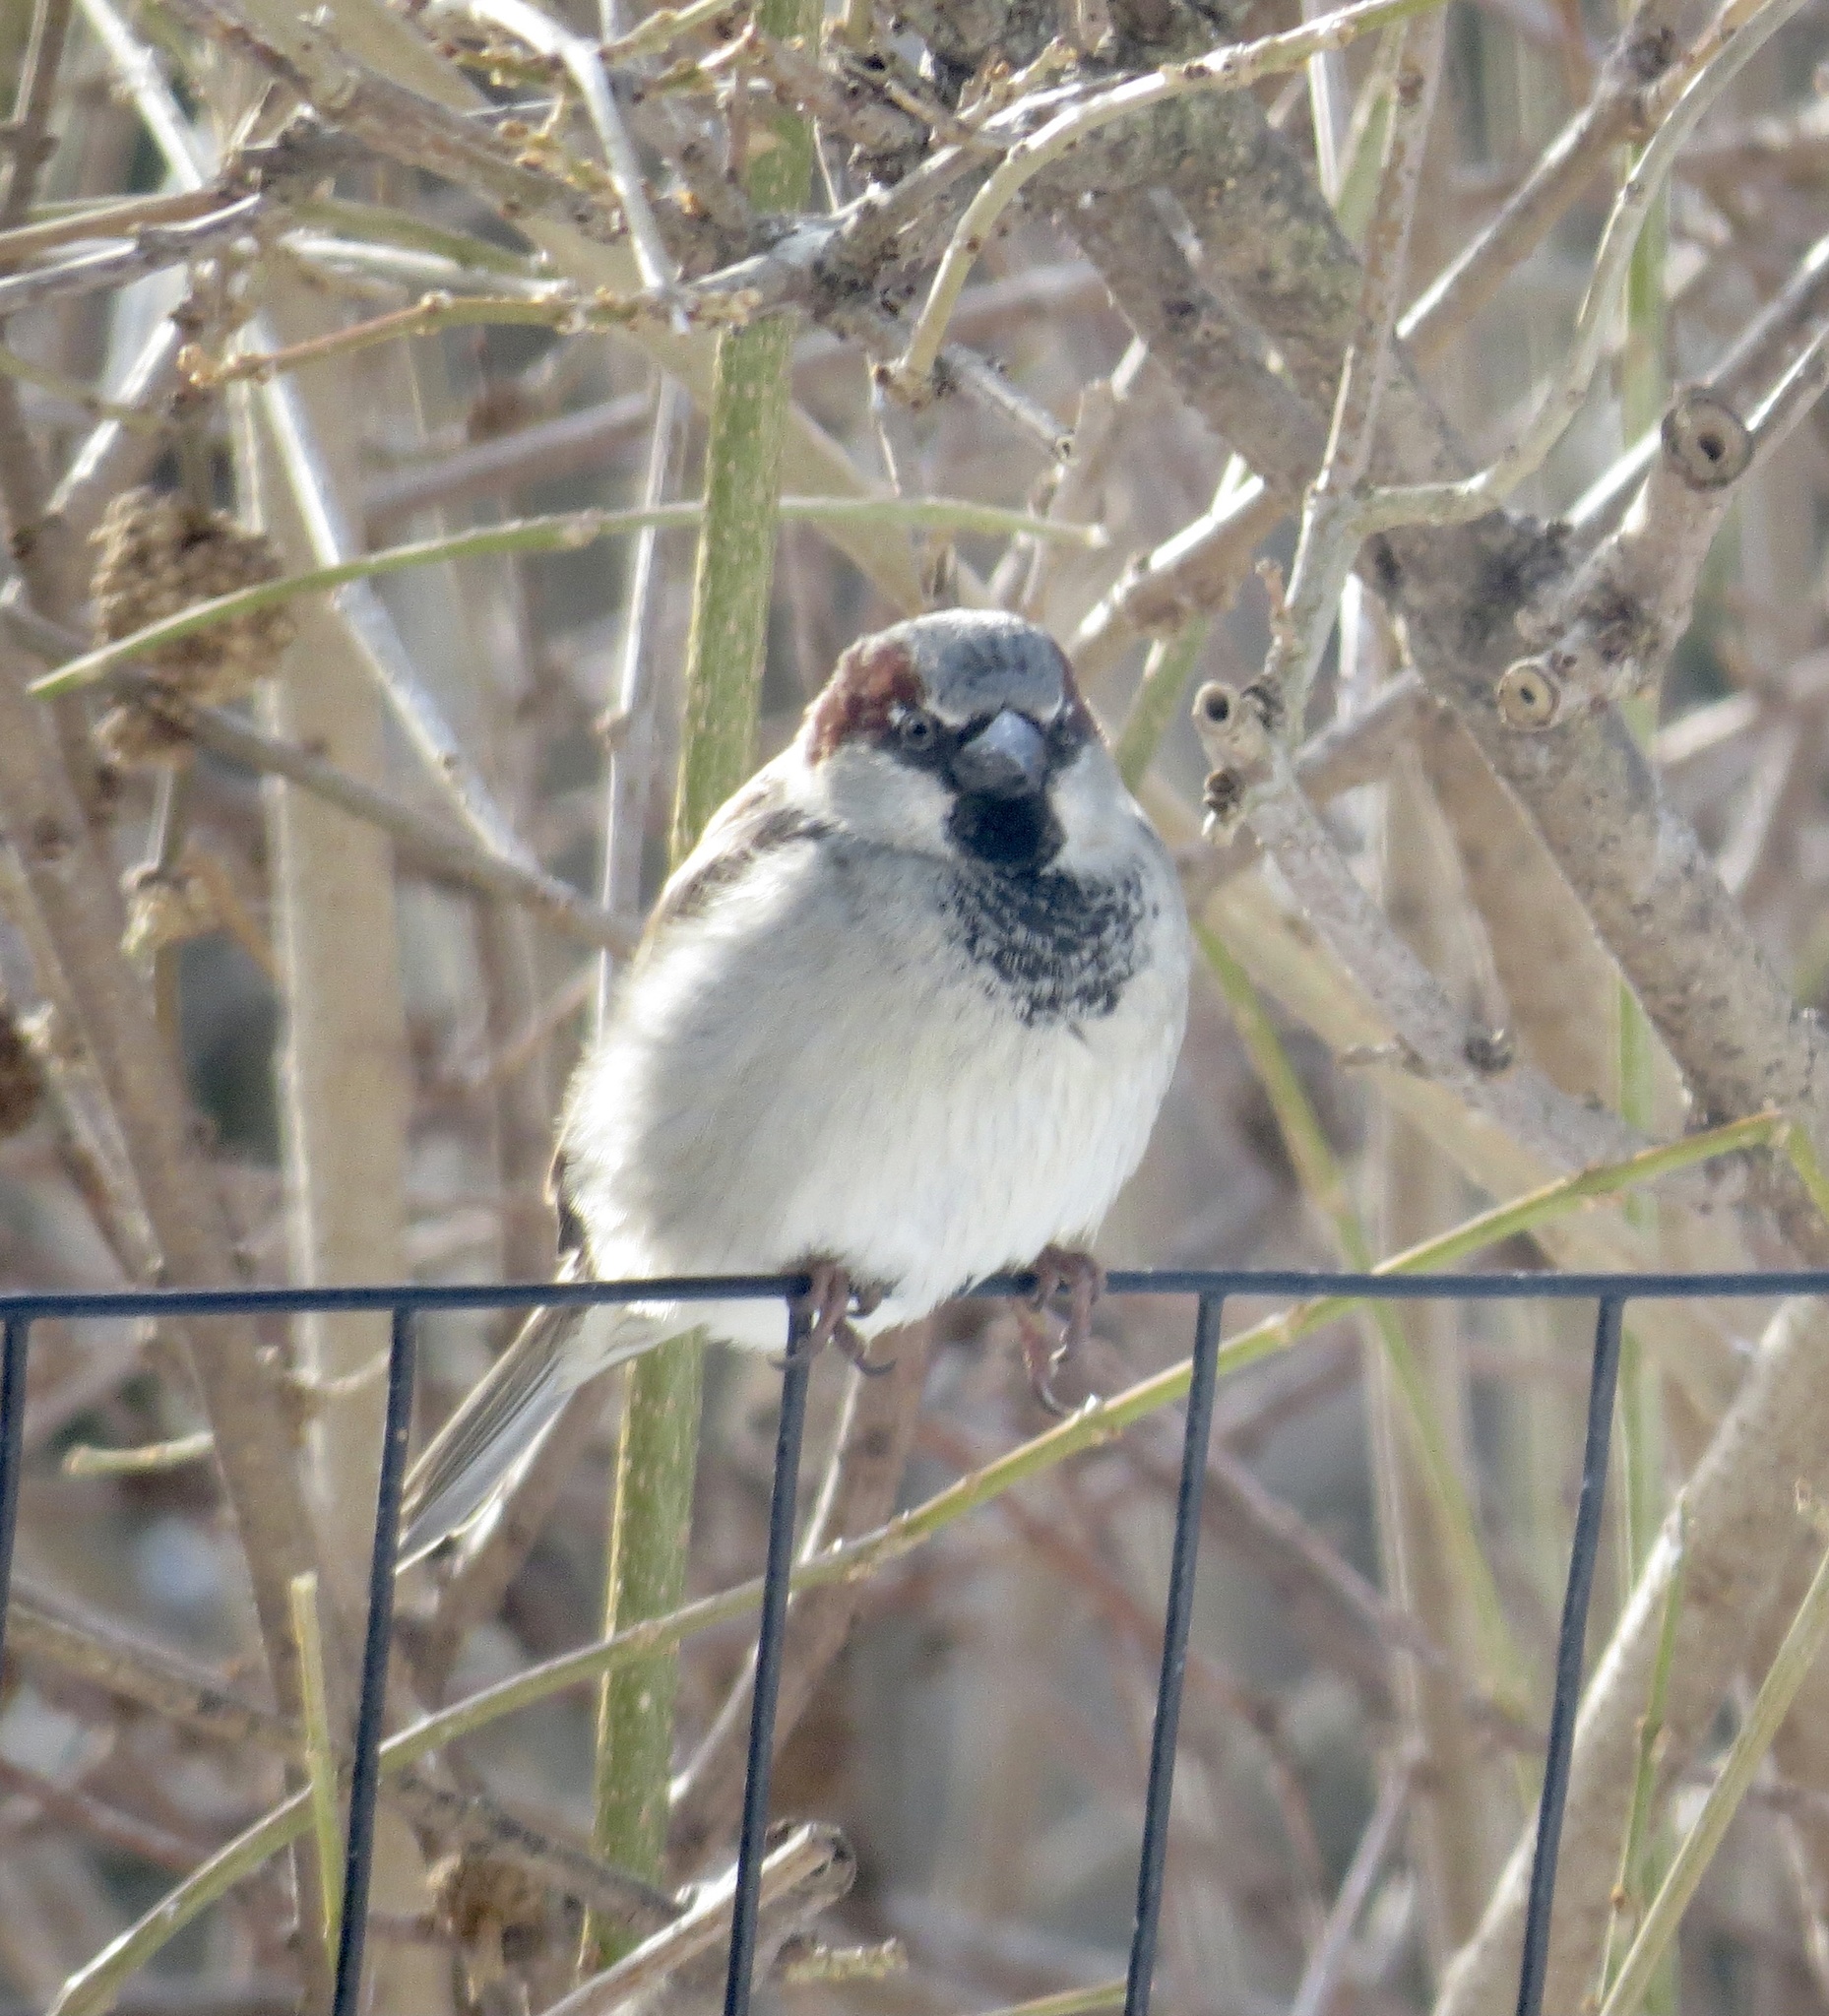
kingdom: Animalia
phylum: Chordata
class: Aves
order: Passeriformes
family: Passeridae
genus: Passer
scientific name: Passer domesticus
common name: House sparrow
